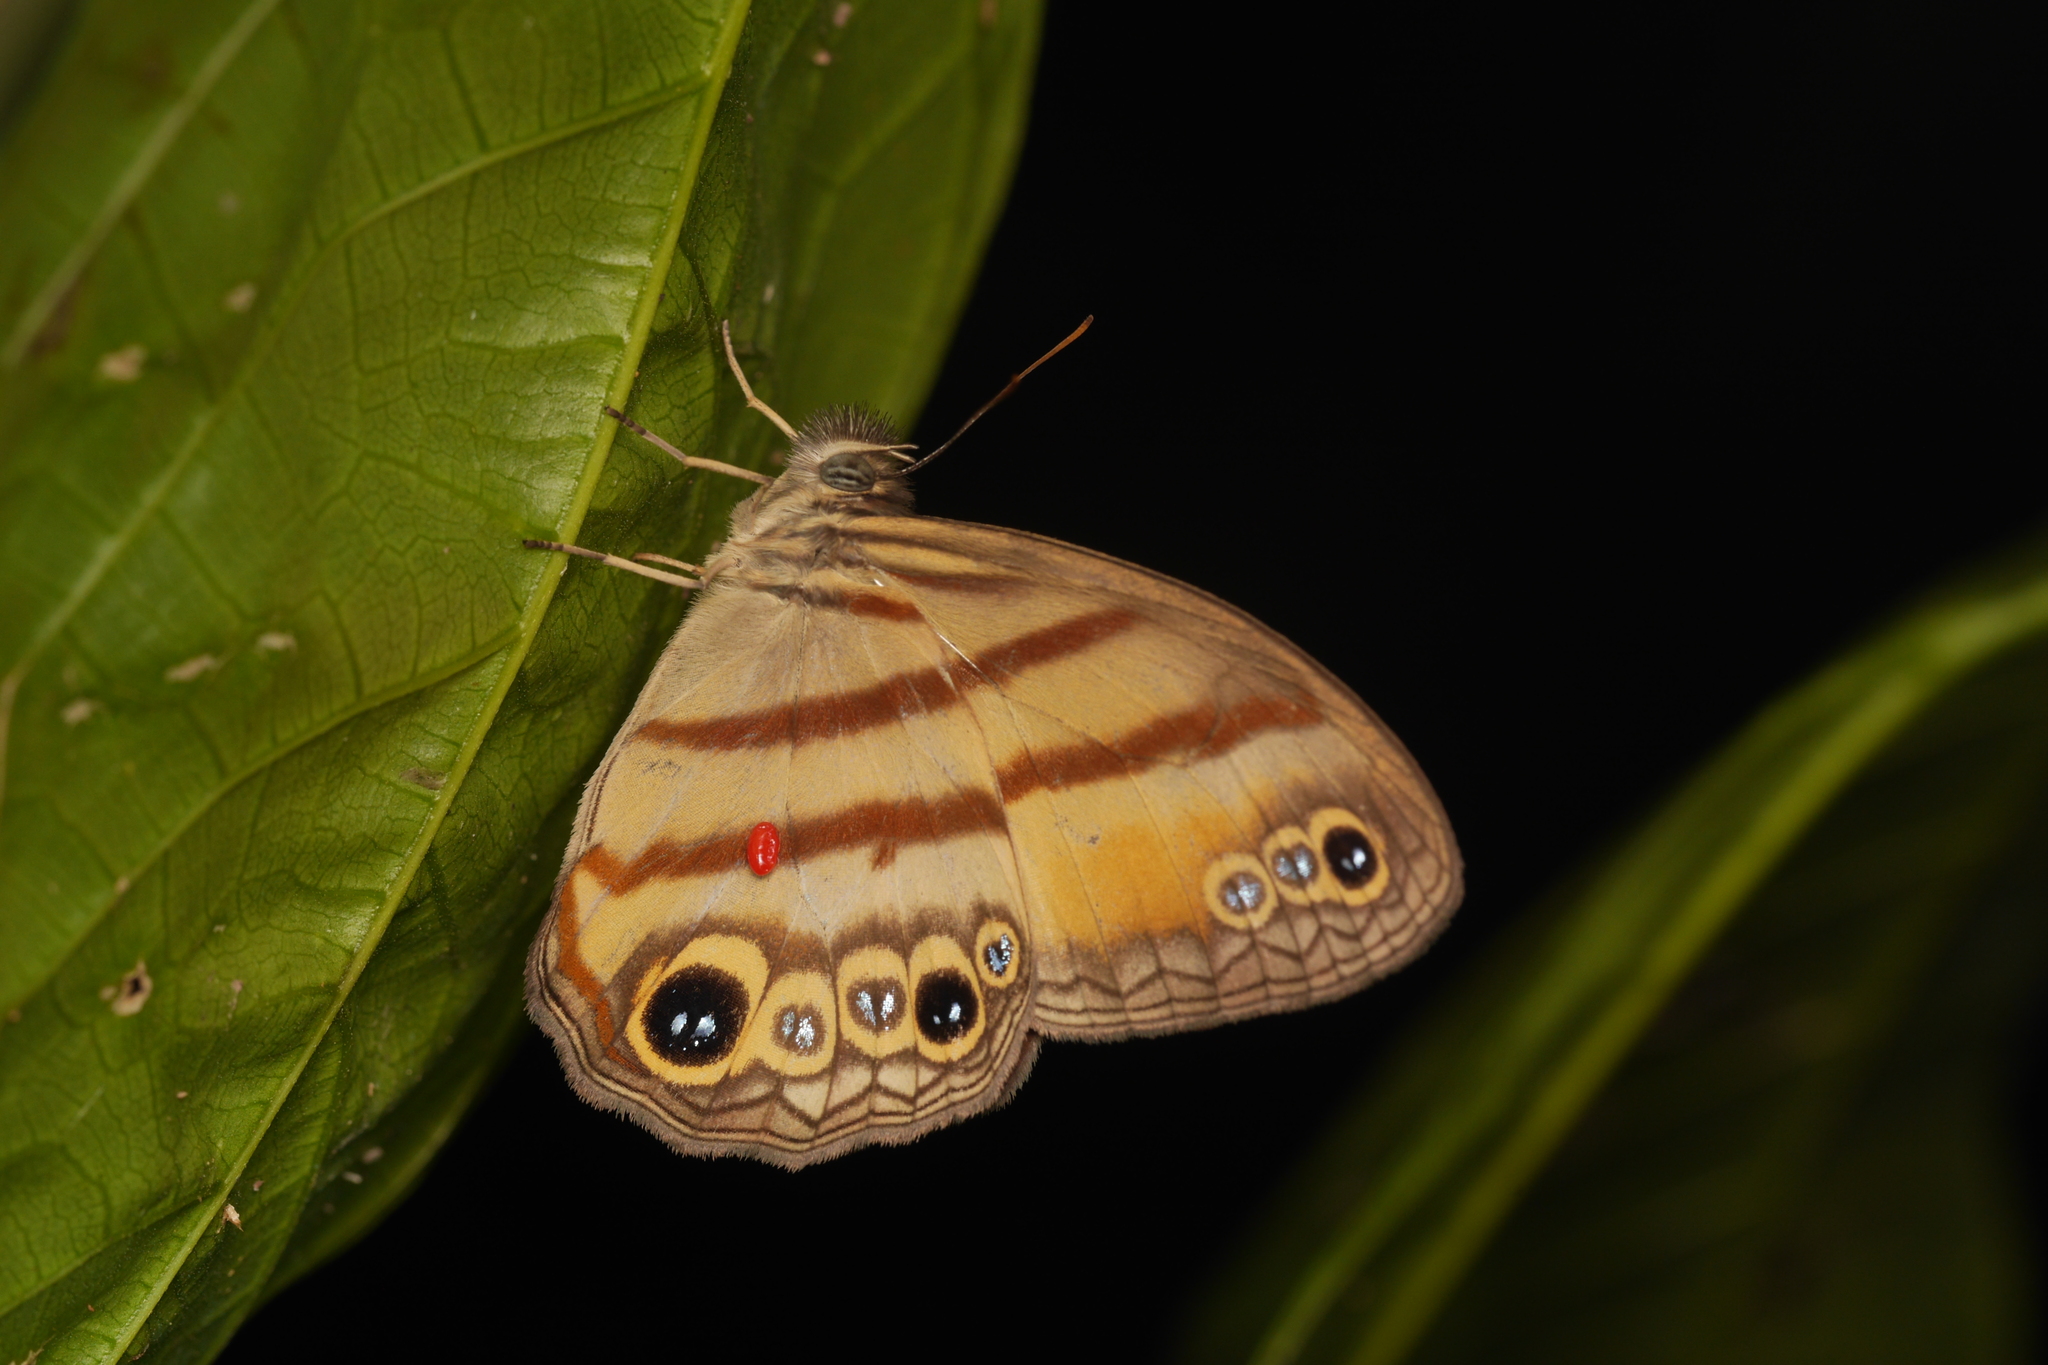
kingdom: Animalia
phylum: Arthropoda
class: Insecta
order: Lepidoptera
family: Nymphalidae
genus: Modica
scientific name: Modica
